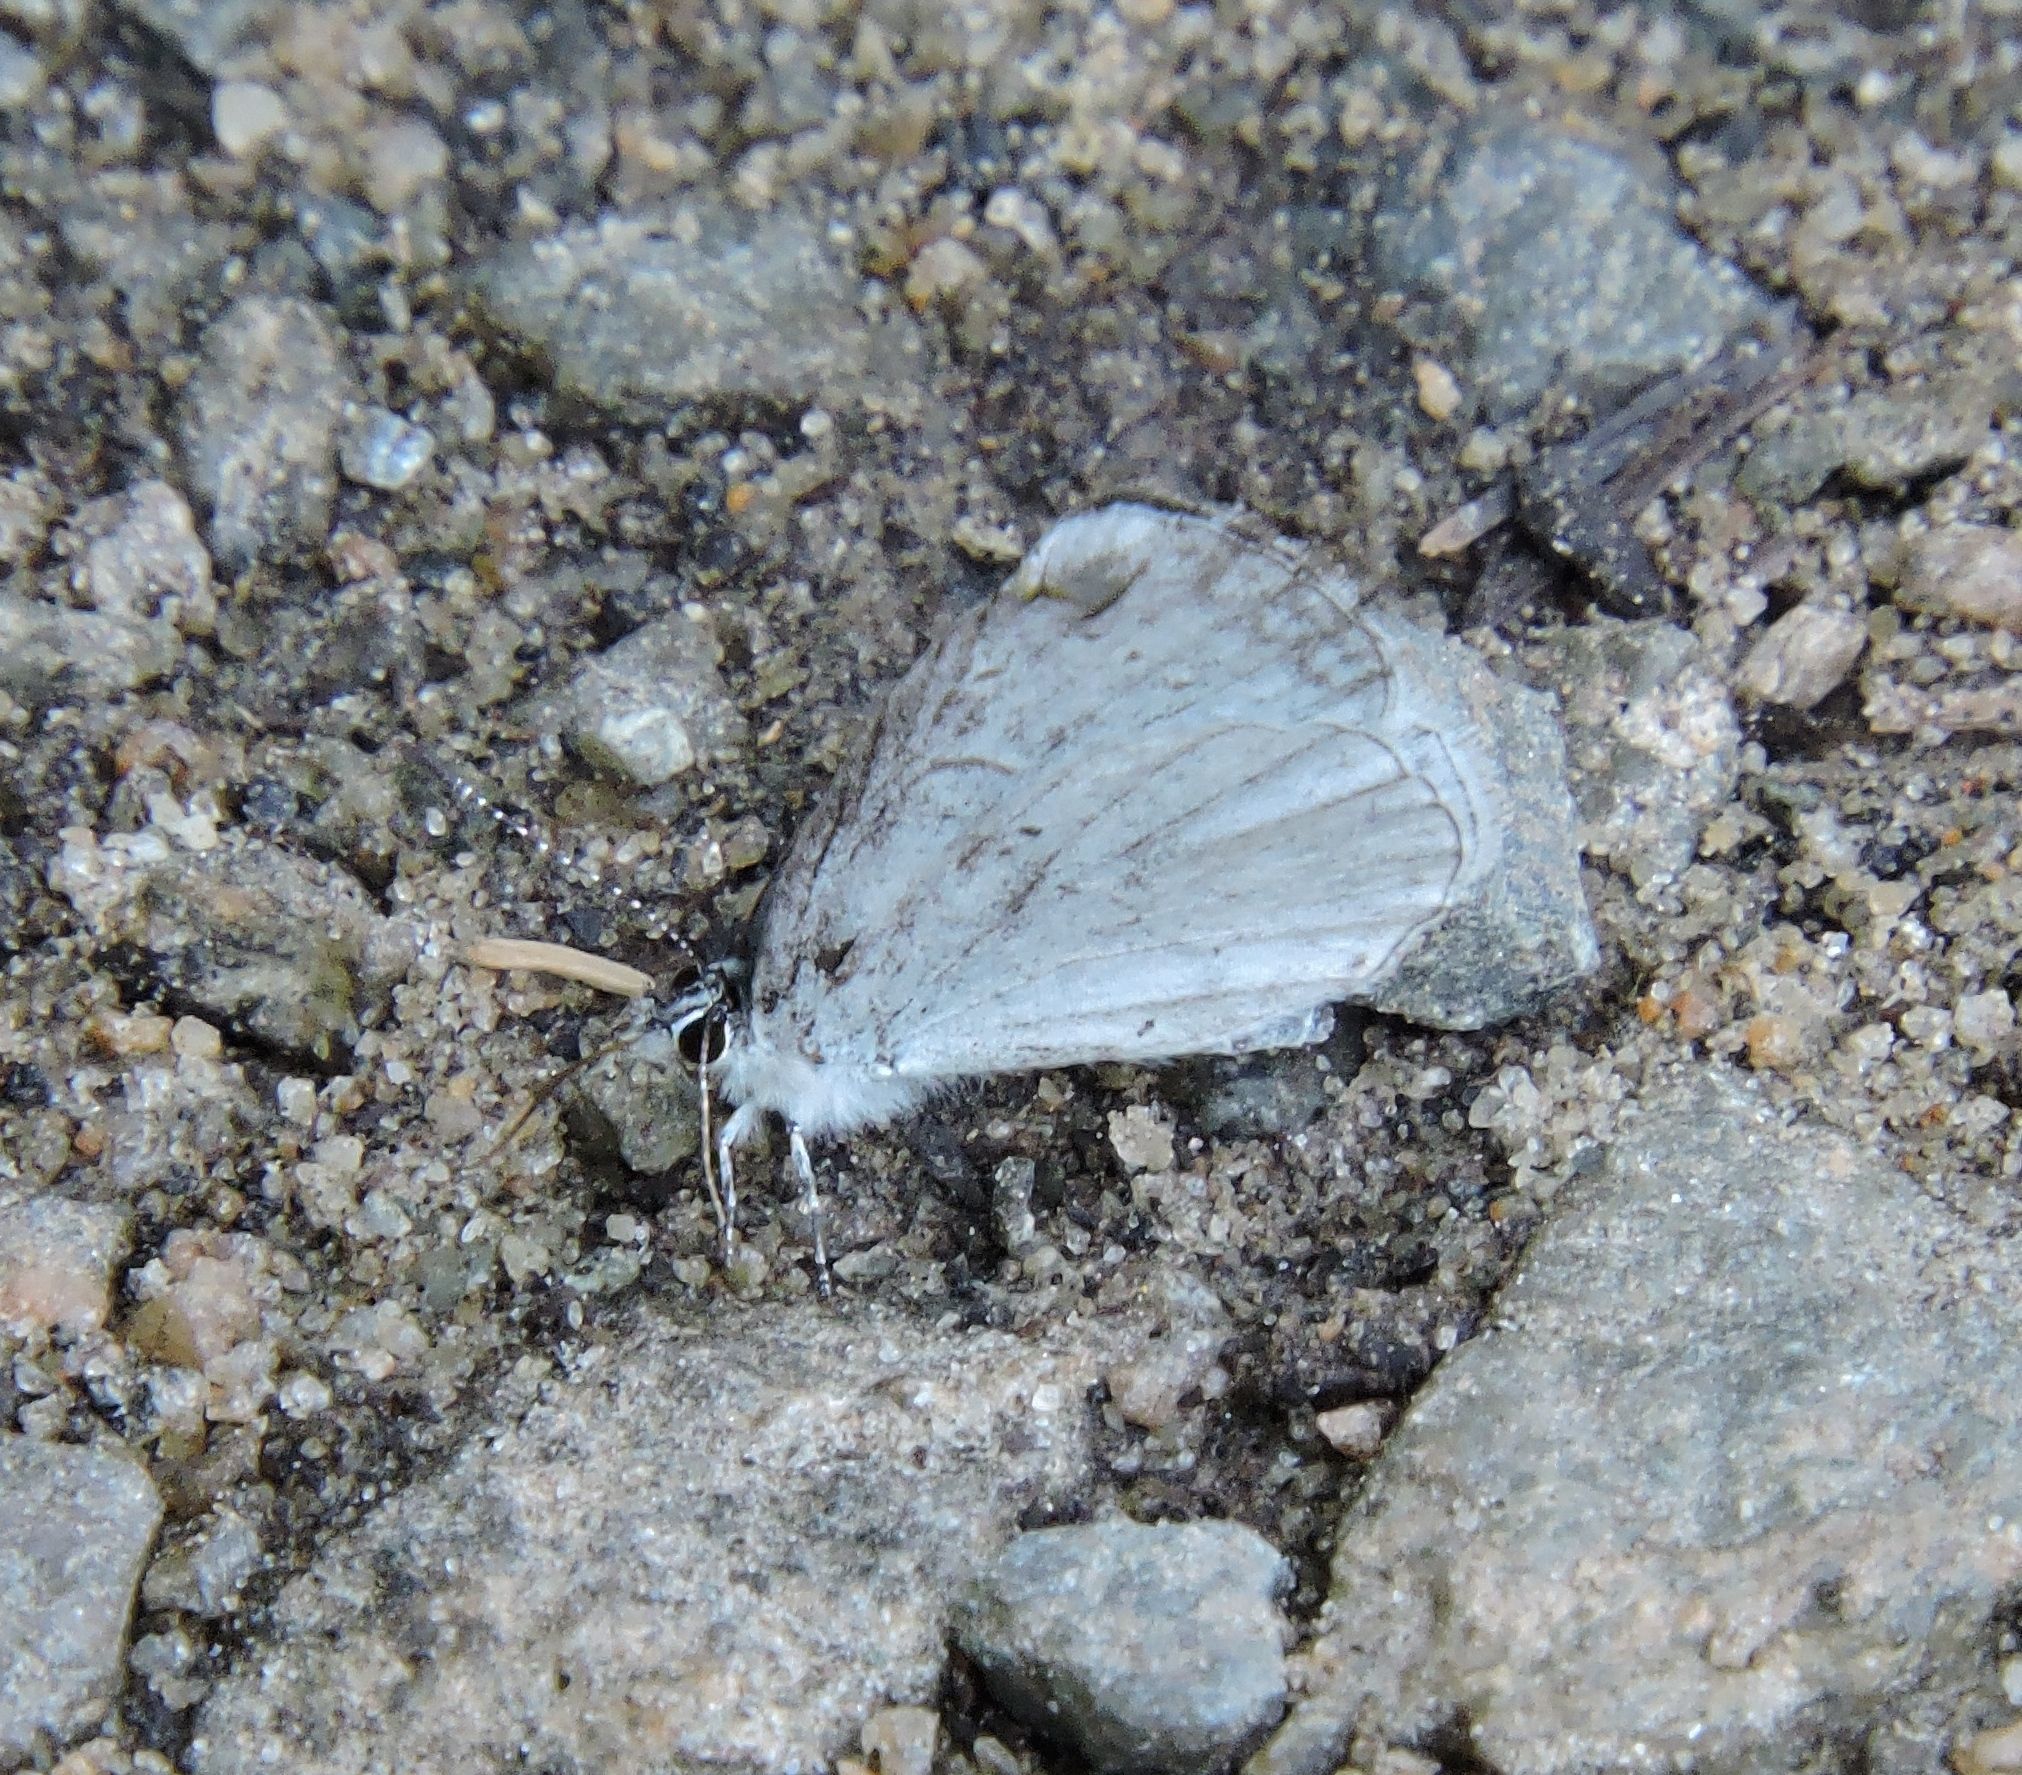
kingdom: Animalia
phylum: Arthropoda
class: Insecta
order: Lepidoptera
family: Lycaenidae
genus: Cyaniris
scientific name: Cyaniris neglecta
